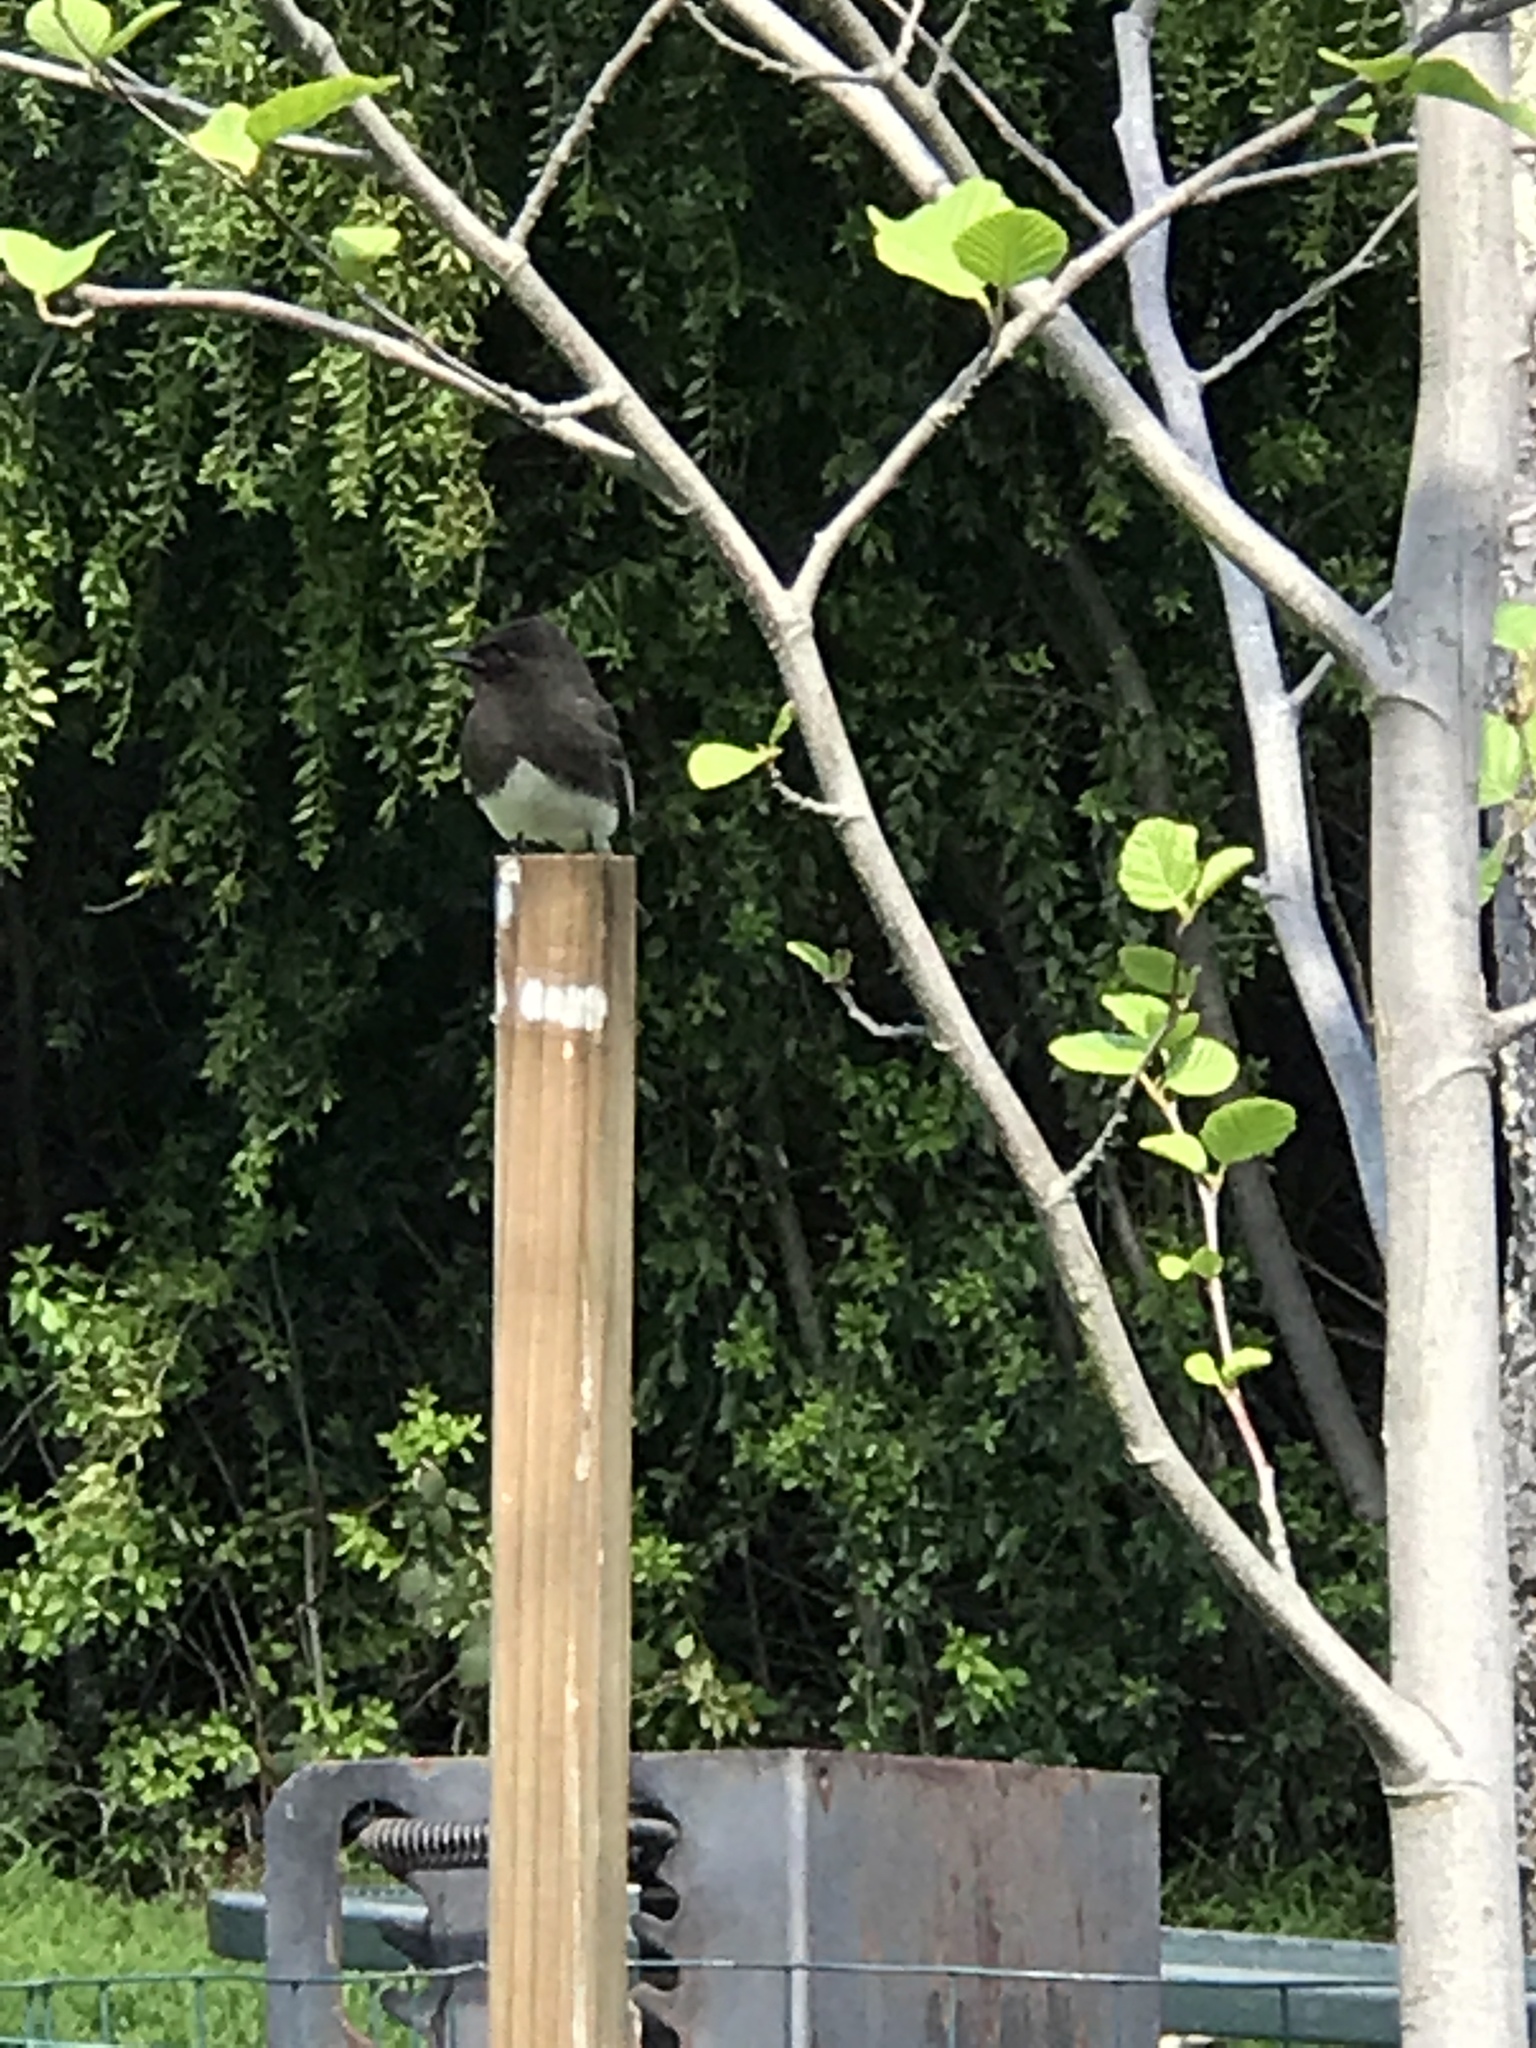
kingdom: Animalia
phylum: Chordata
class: Aves
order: Passeriformes
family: Tyrannidae
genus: Sayornis
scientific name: Sayornis nigricans
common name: Black phoebe
